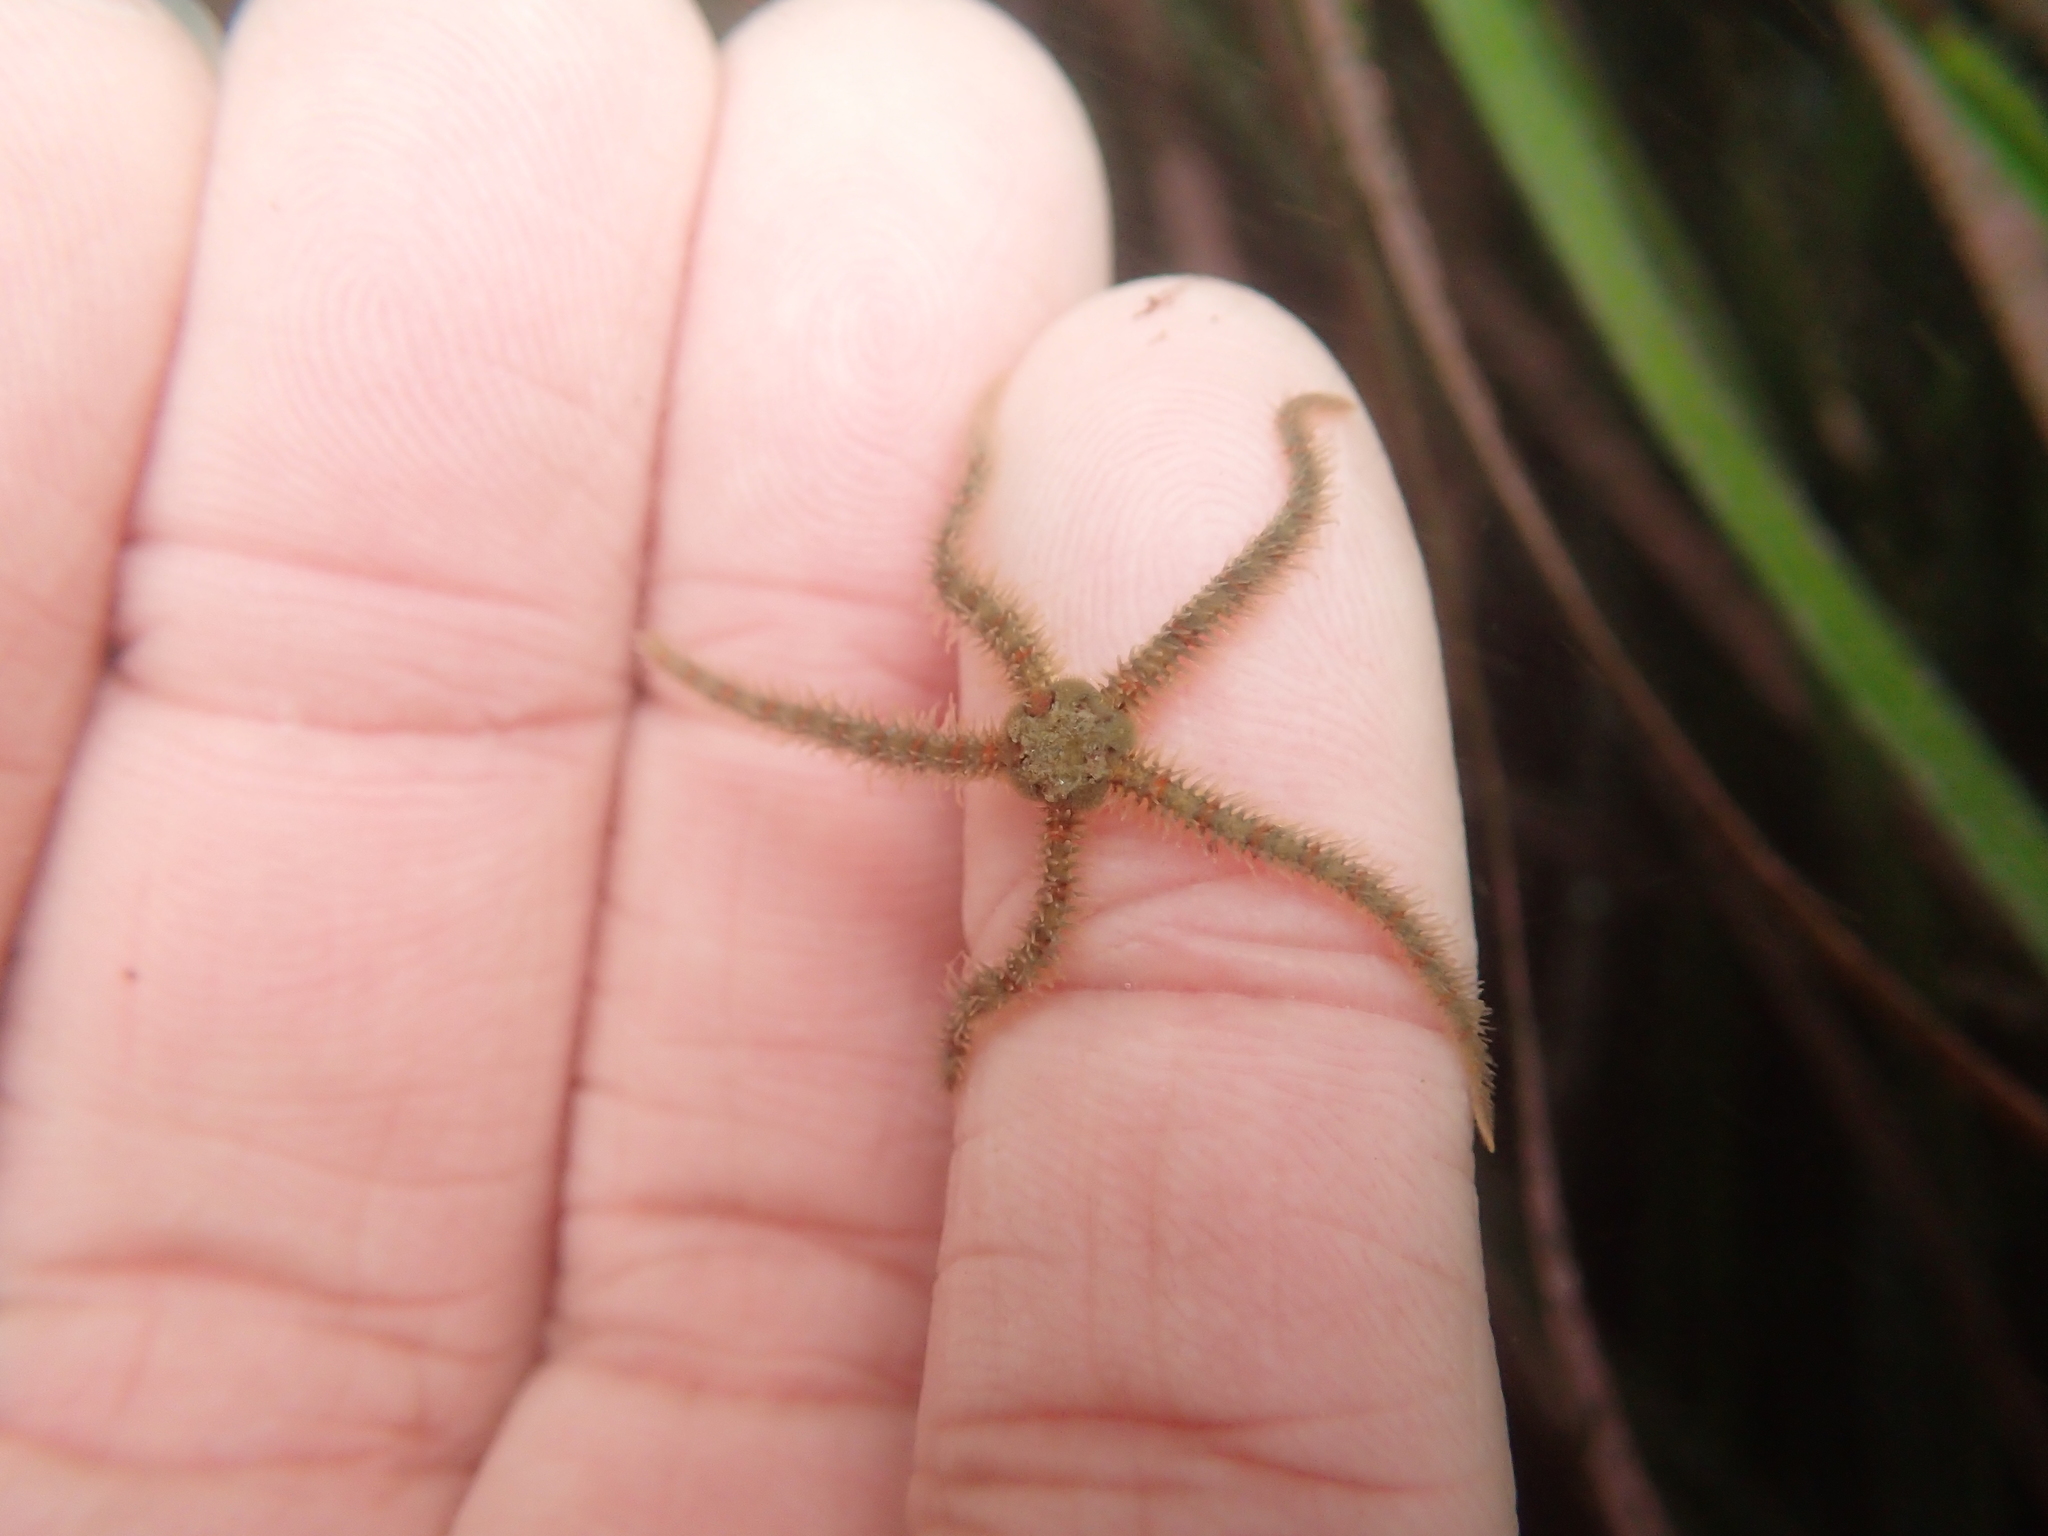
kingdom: Animalia
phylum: Echinodermata
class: Ophiuroidea
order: Amphilepidida
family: Ophiotrichidae
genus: Ophiothrix
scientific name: Ophiothrix spiculata
